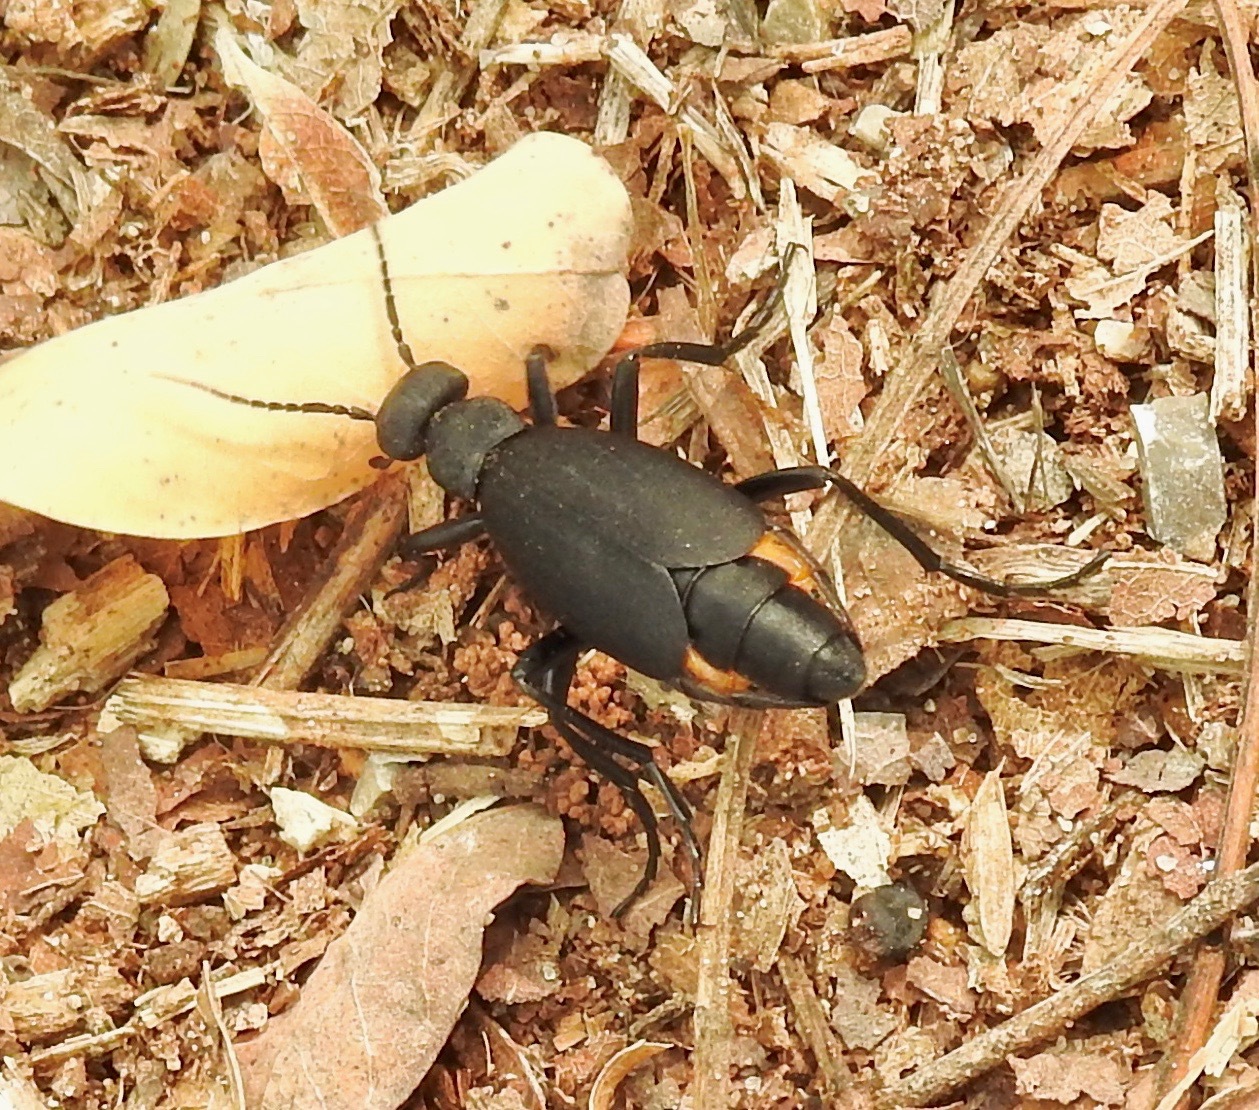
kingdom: Animalia
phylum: Arthropoda
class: Insecta
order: Coleoptera
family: Meloidae
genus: Epicauta
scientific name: Epicauta conferta
